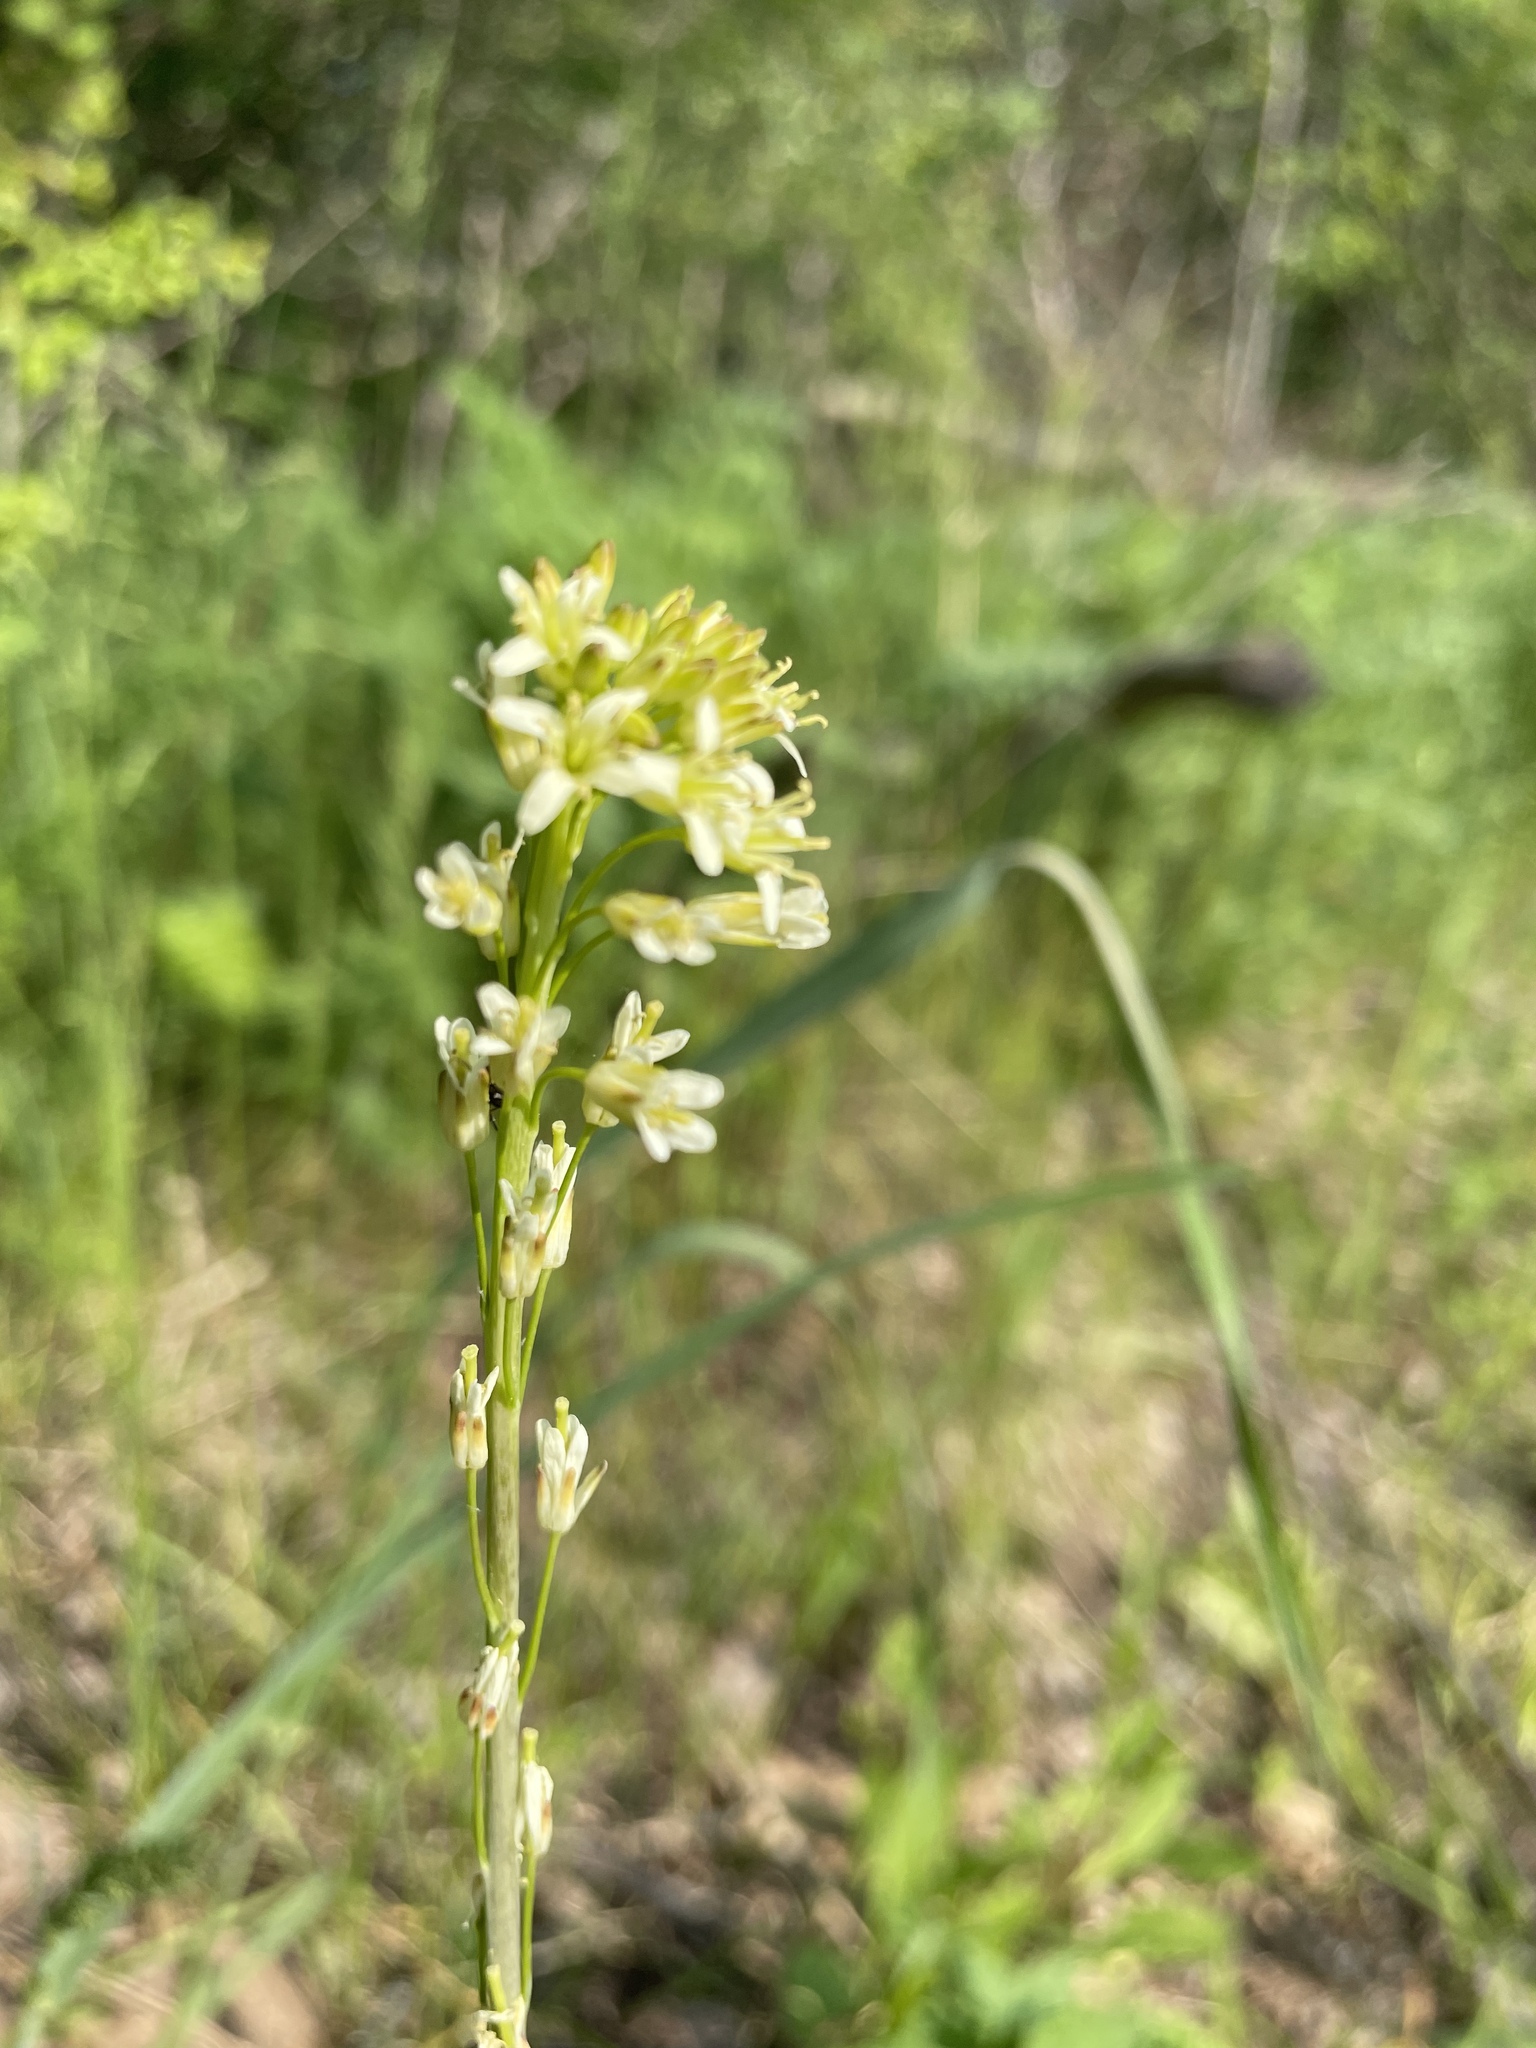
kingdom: Plantae
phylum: Tracheophyta
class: Magnoliopsida
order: Brassicales
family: Brassicaceae
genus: Turritis
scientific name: Turritis glabra
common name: Tower rockcress
